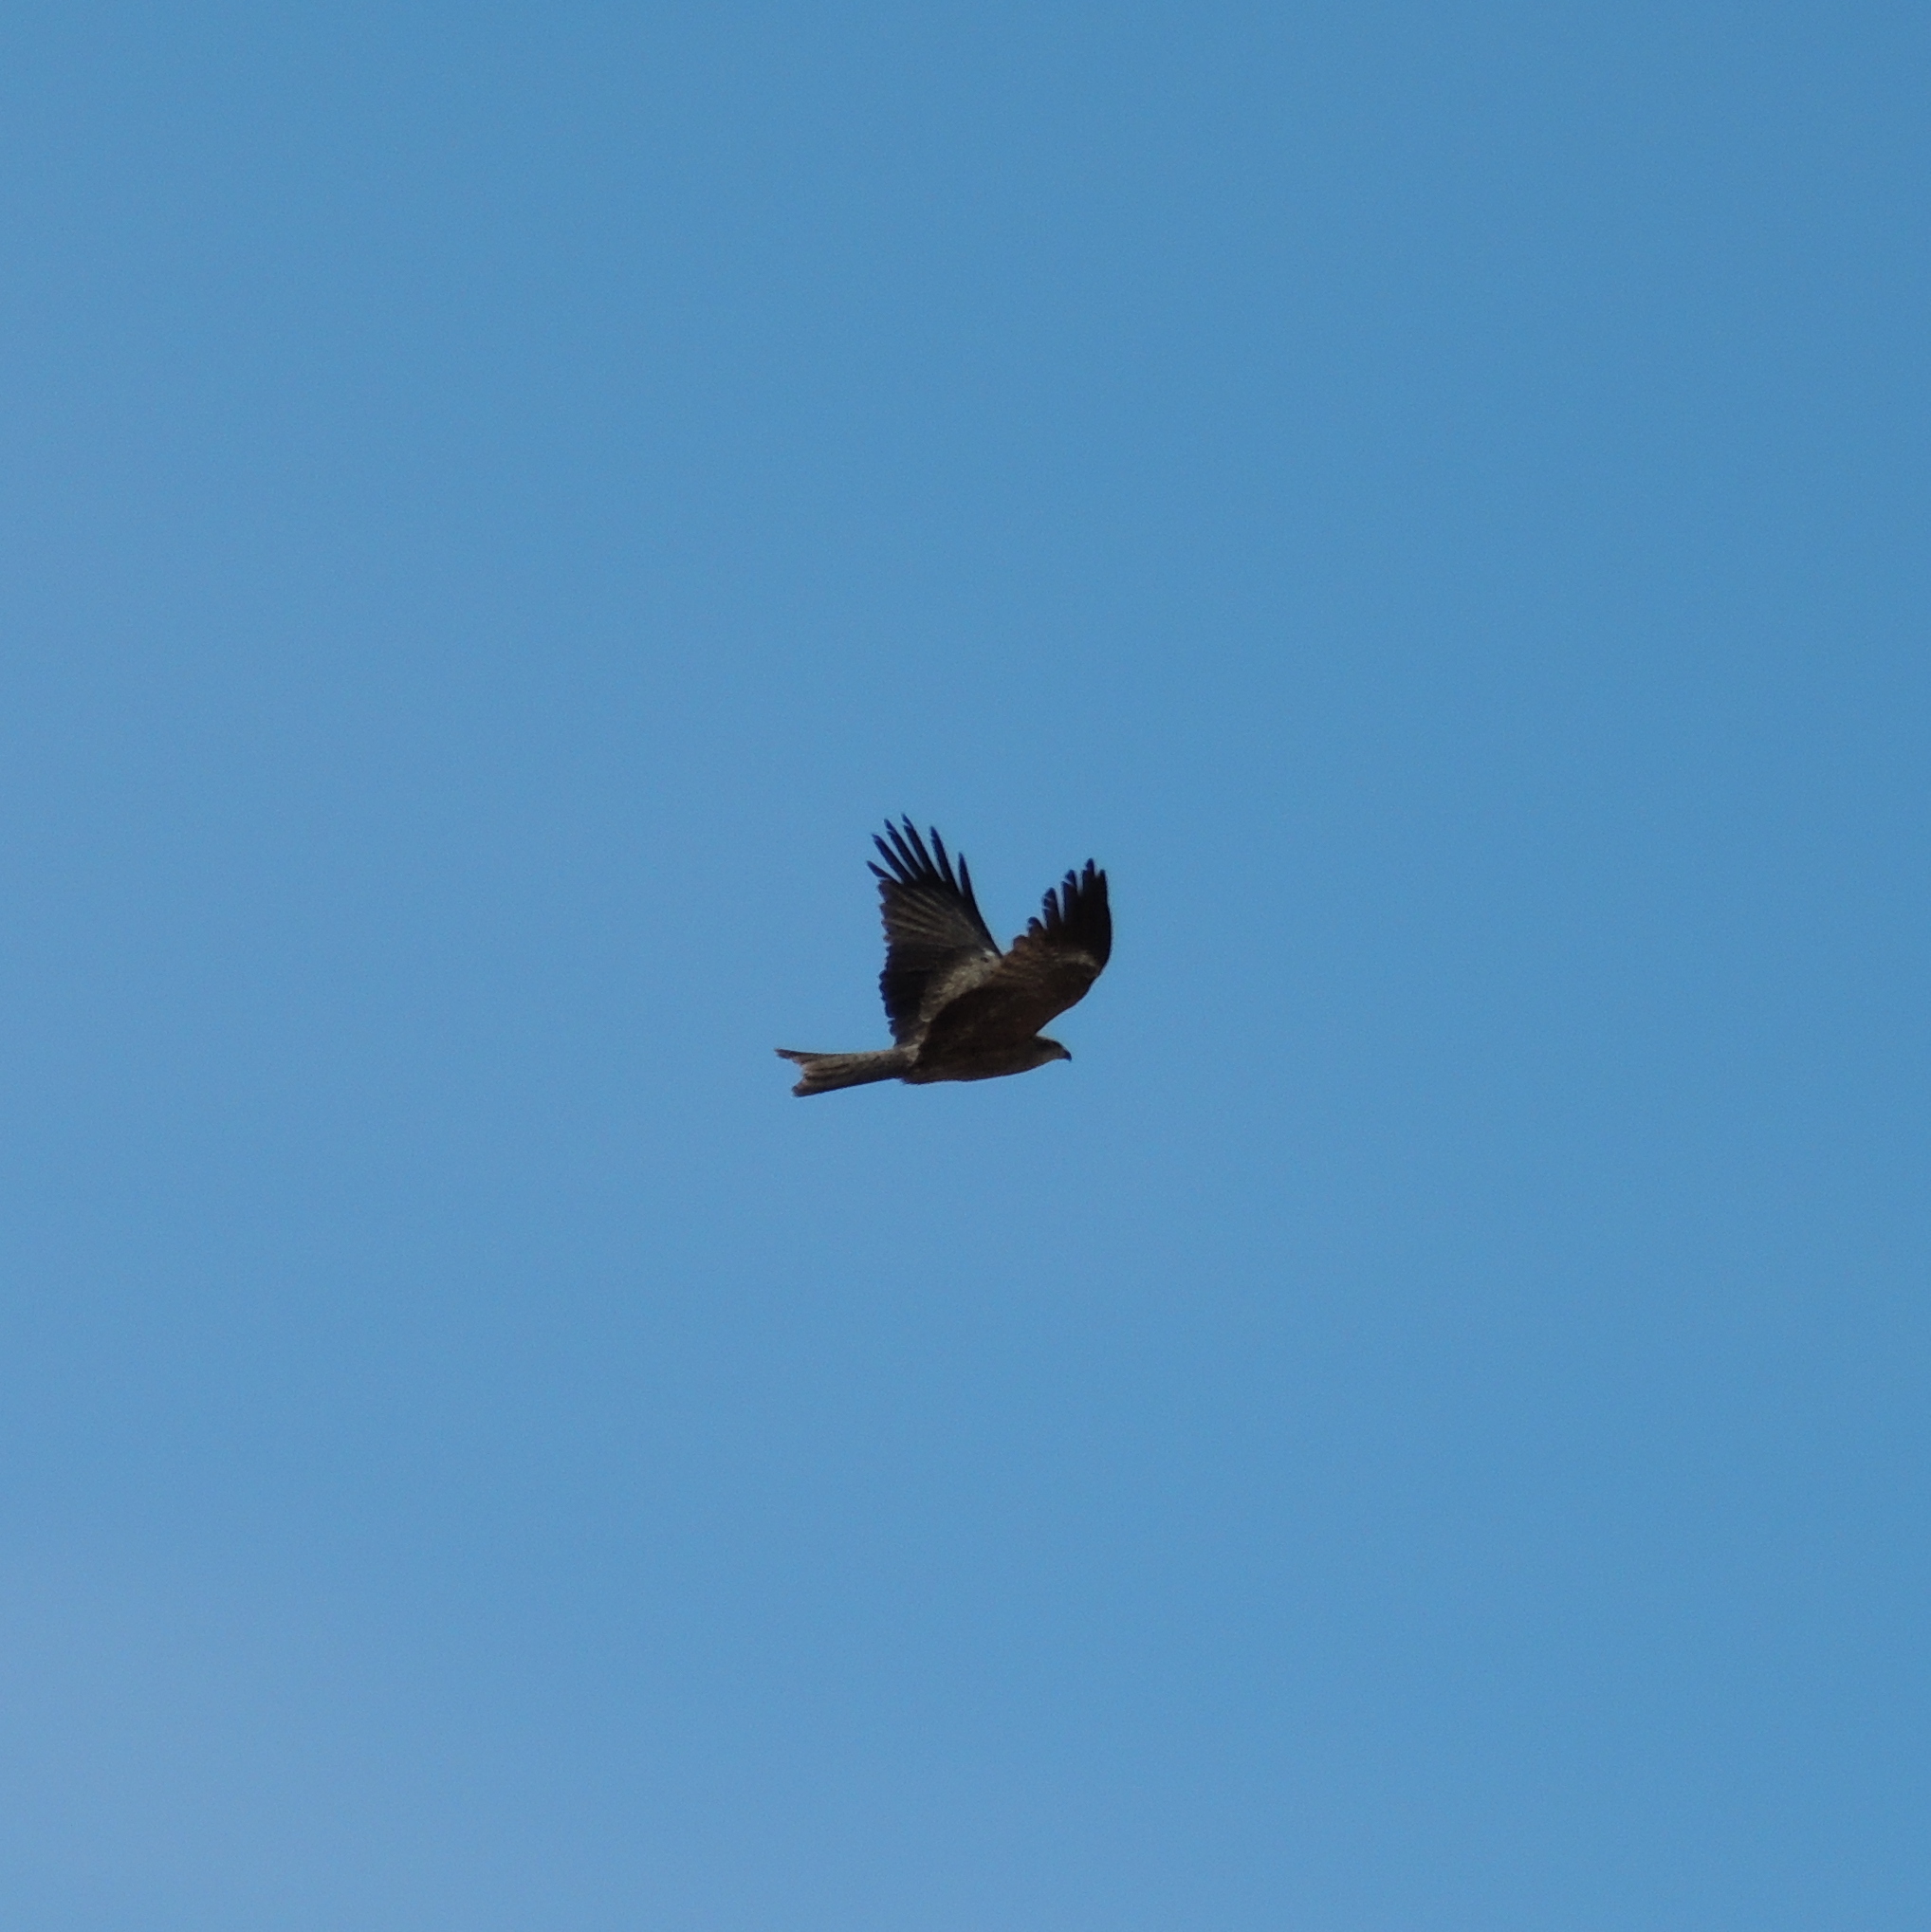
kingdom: Animalia
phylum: Chordata
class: Aves
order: Accipitriformes
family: Accipitridae
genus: Milvus
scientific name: Milvus migrans
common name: Black kite
